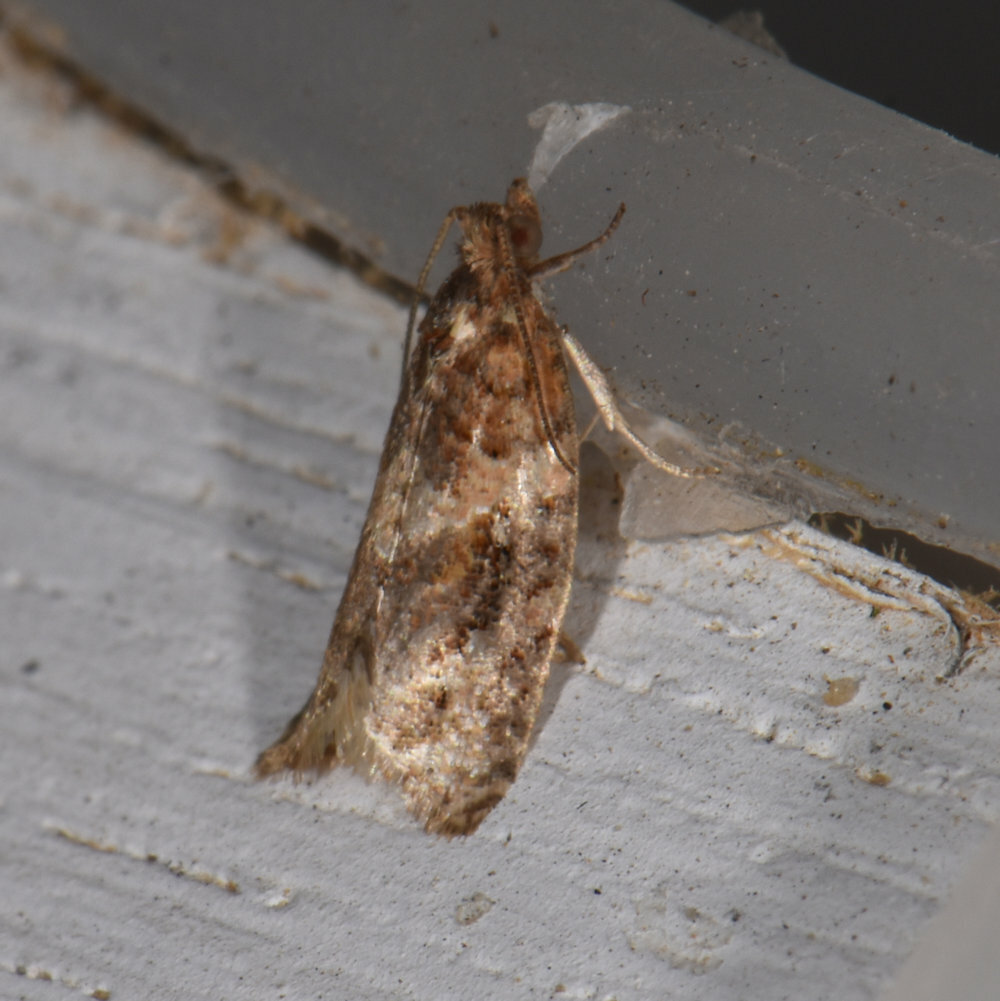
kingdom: Animalia
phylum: Arthropoda
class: Insecta
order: Lepidoptera
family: Tortricidae
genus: Argyrotaenia
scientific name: Argyrotaenia velutinana
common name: Red-banded leafroller moth
